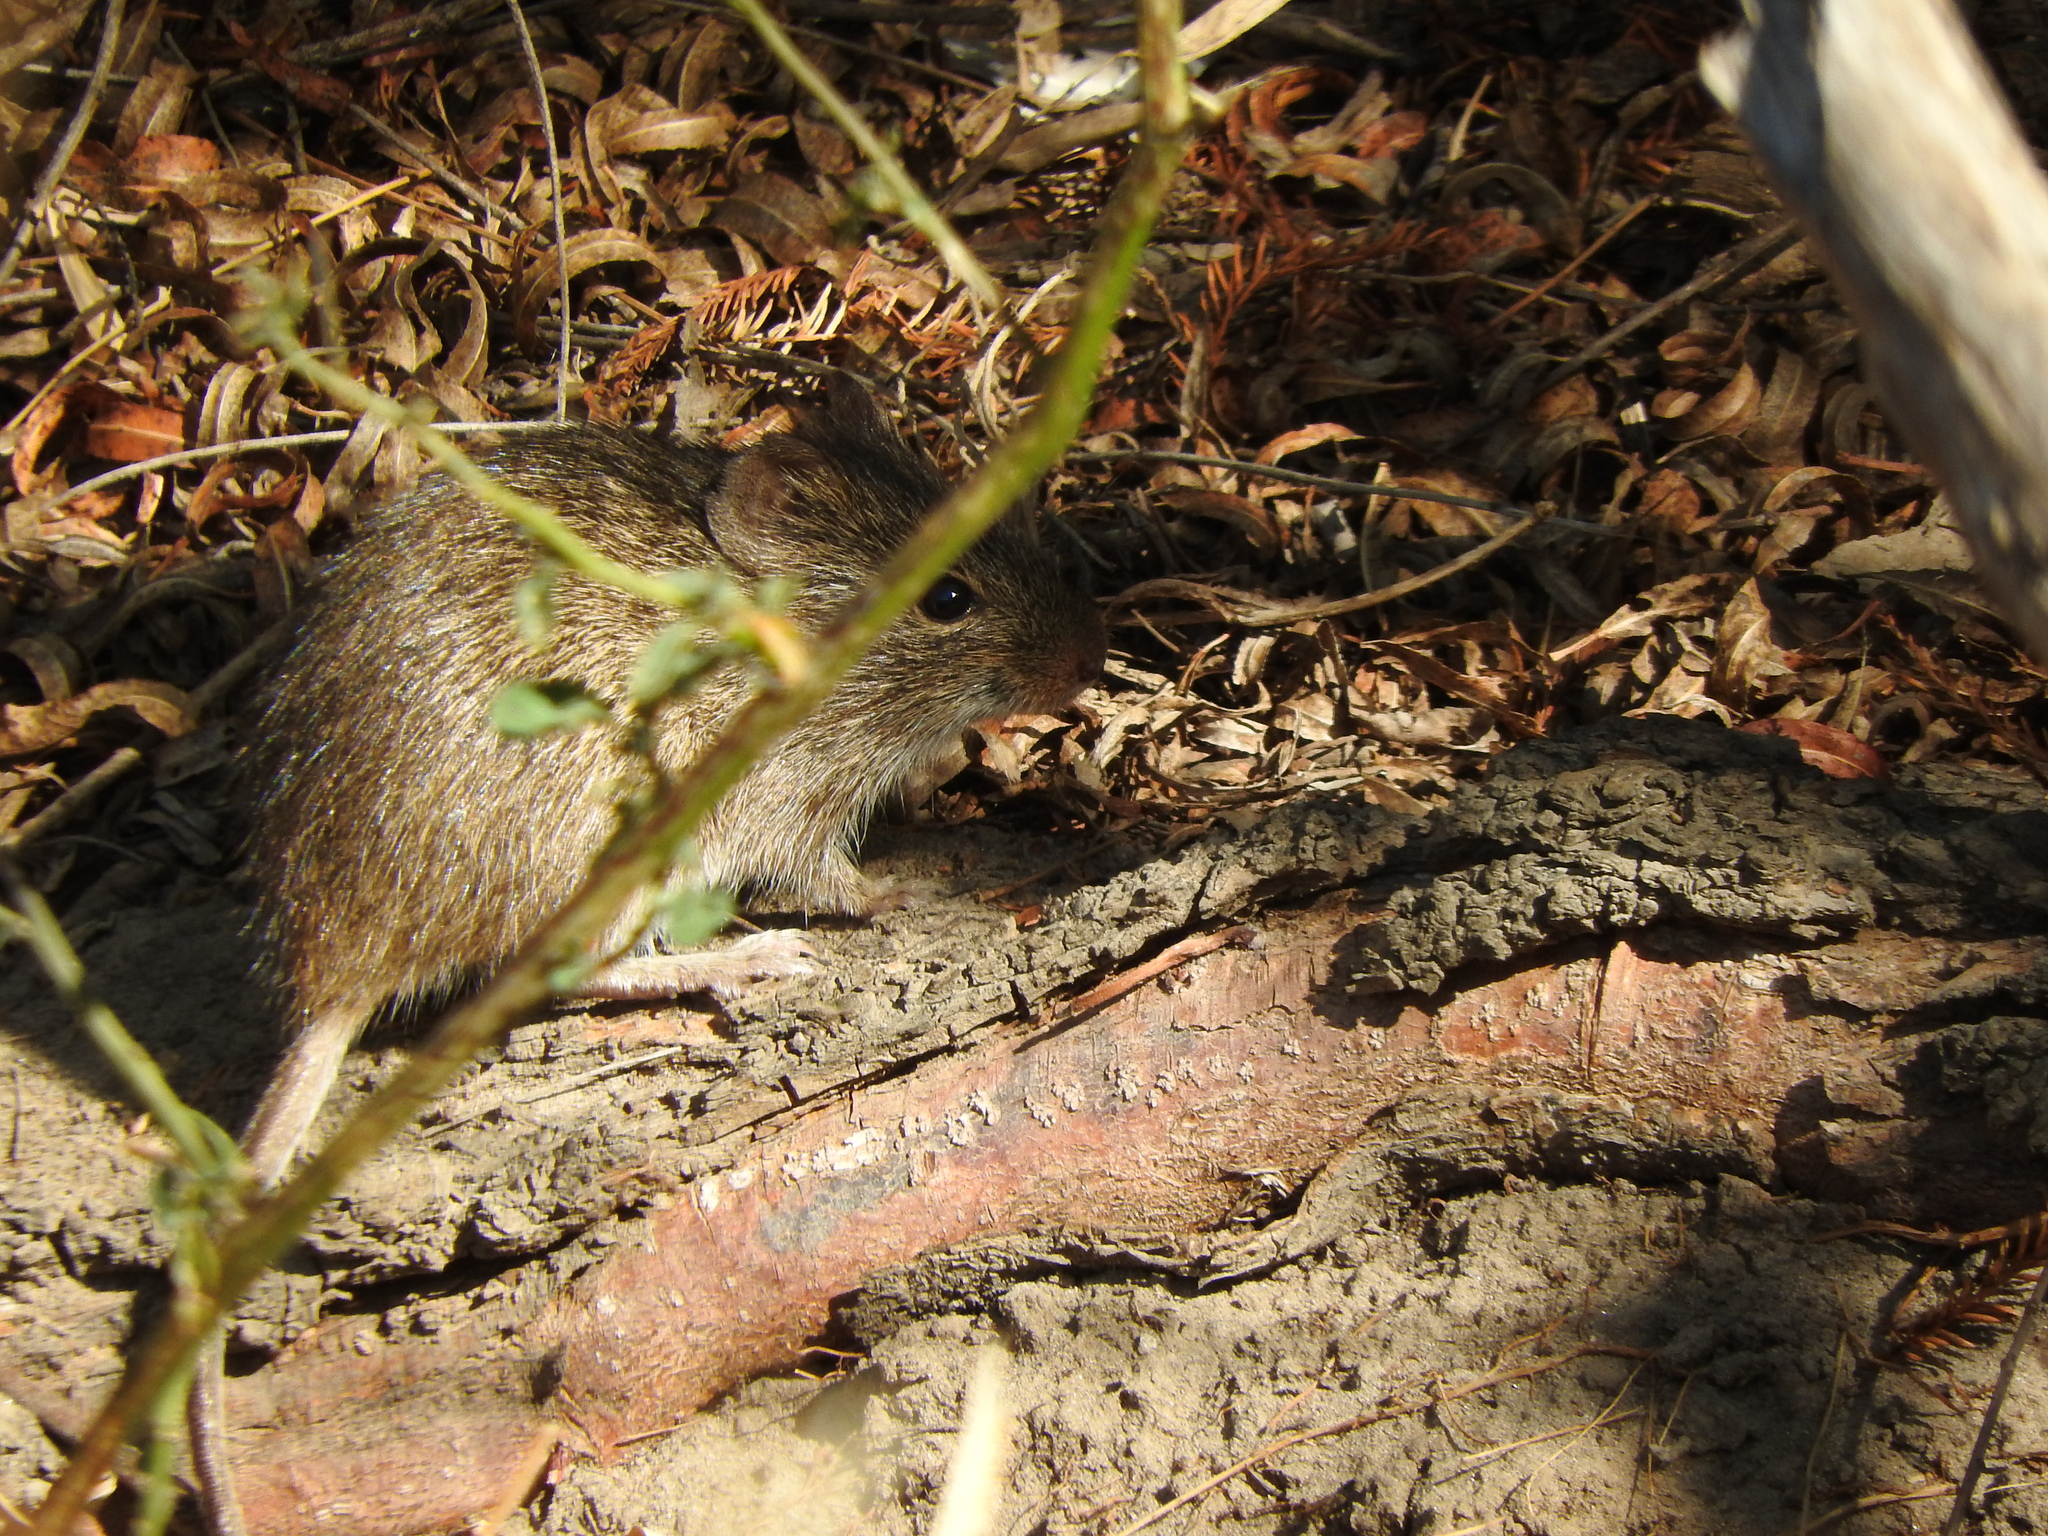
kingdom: Animalia
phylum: Chordata
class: Mammalia
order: Rodentia
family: Cricetidae
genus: Sigmodon
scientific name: Sigmodon leucotis
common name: White-eared cotton rat
